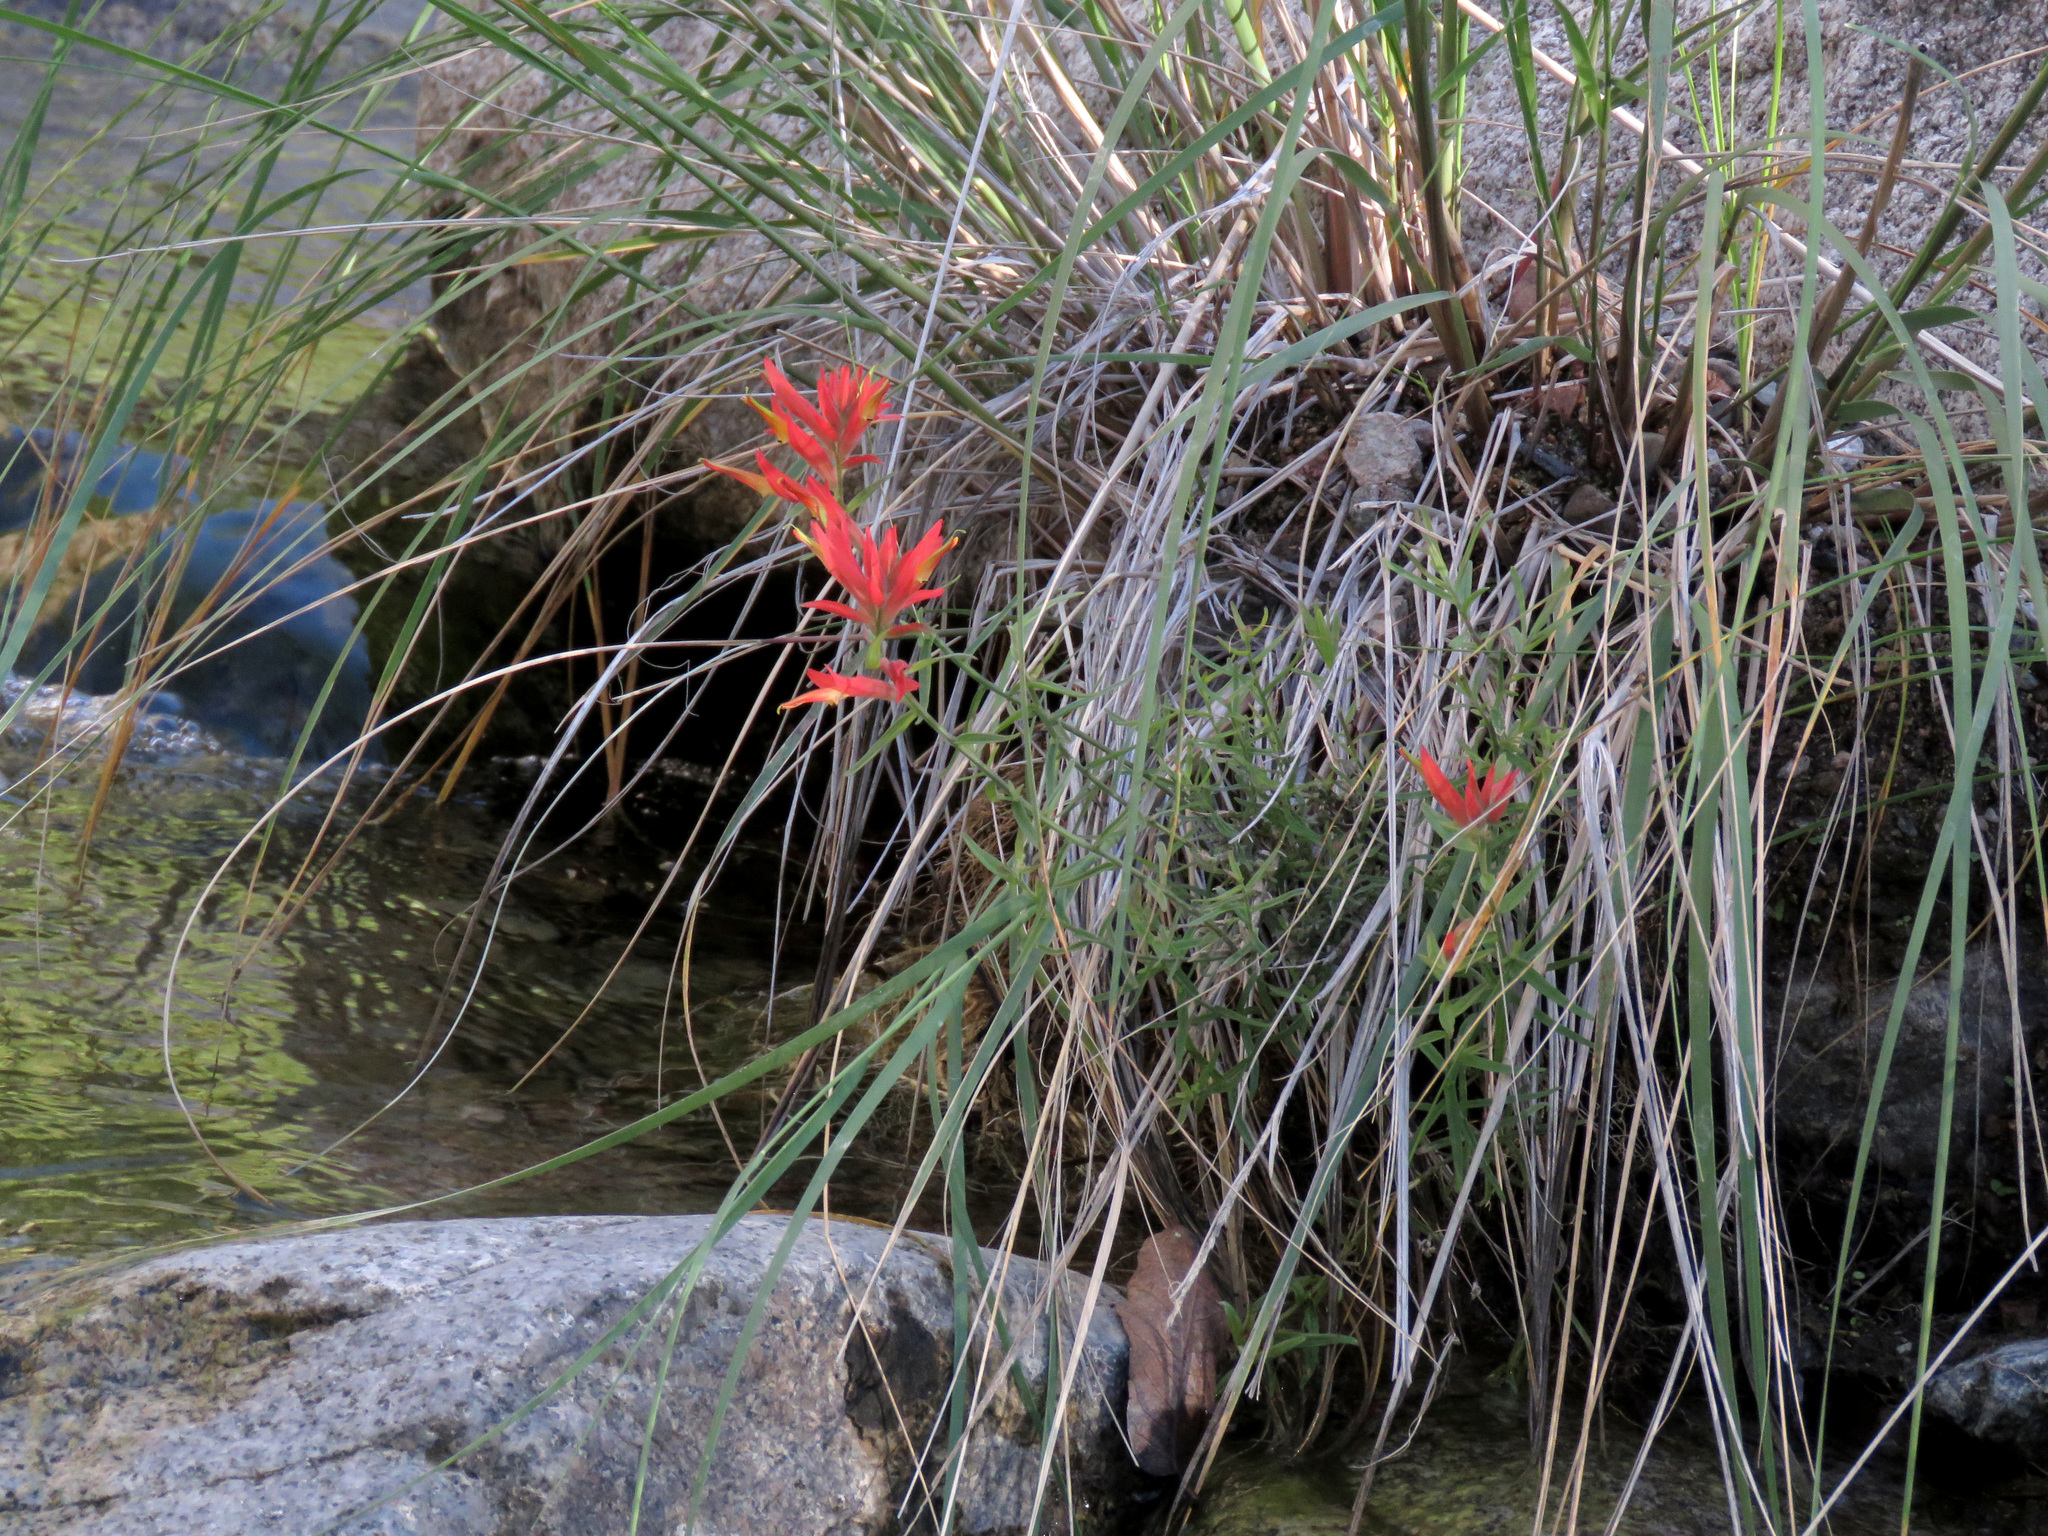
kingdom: Plantae
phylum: Tracheophyta
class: Magnoliopsida
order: Lamiales
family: Orobanchaceae
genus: Castilleja
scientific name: Castilleja tenuiflora
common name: Santa catalina indian paintbrush
